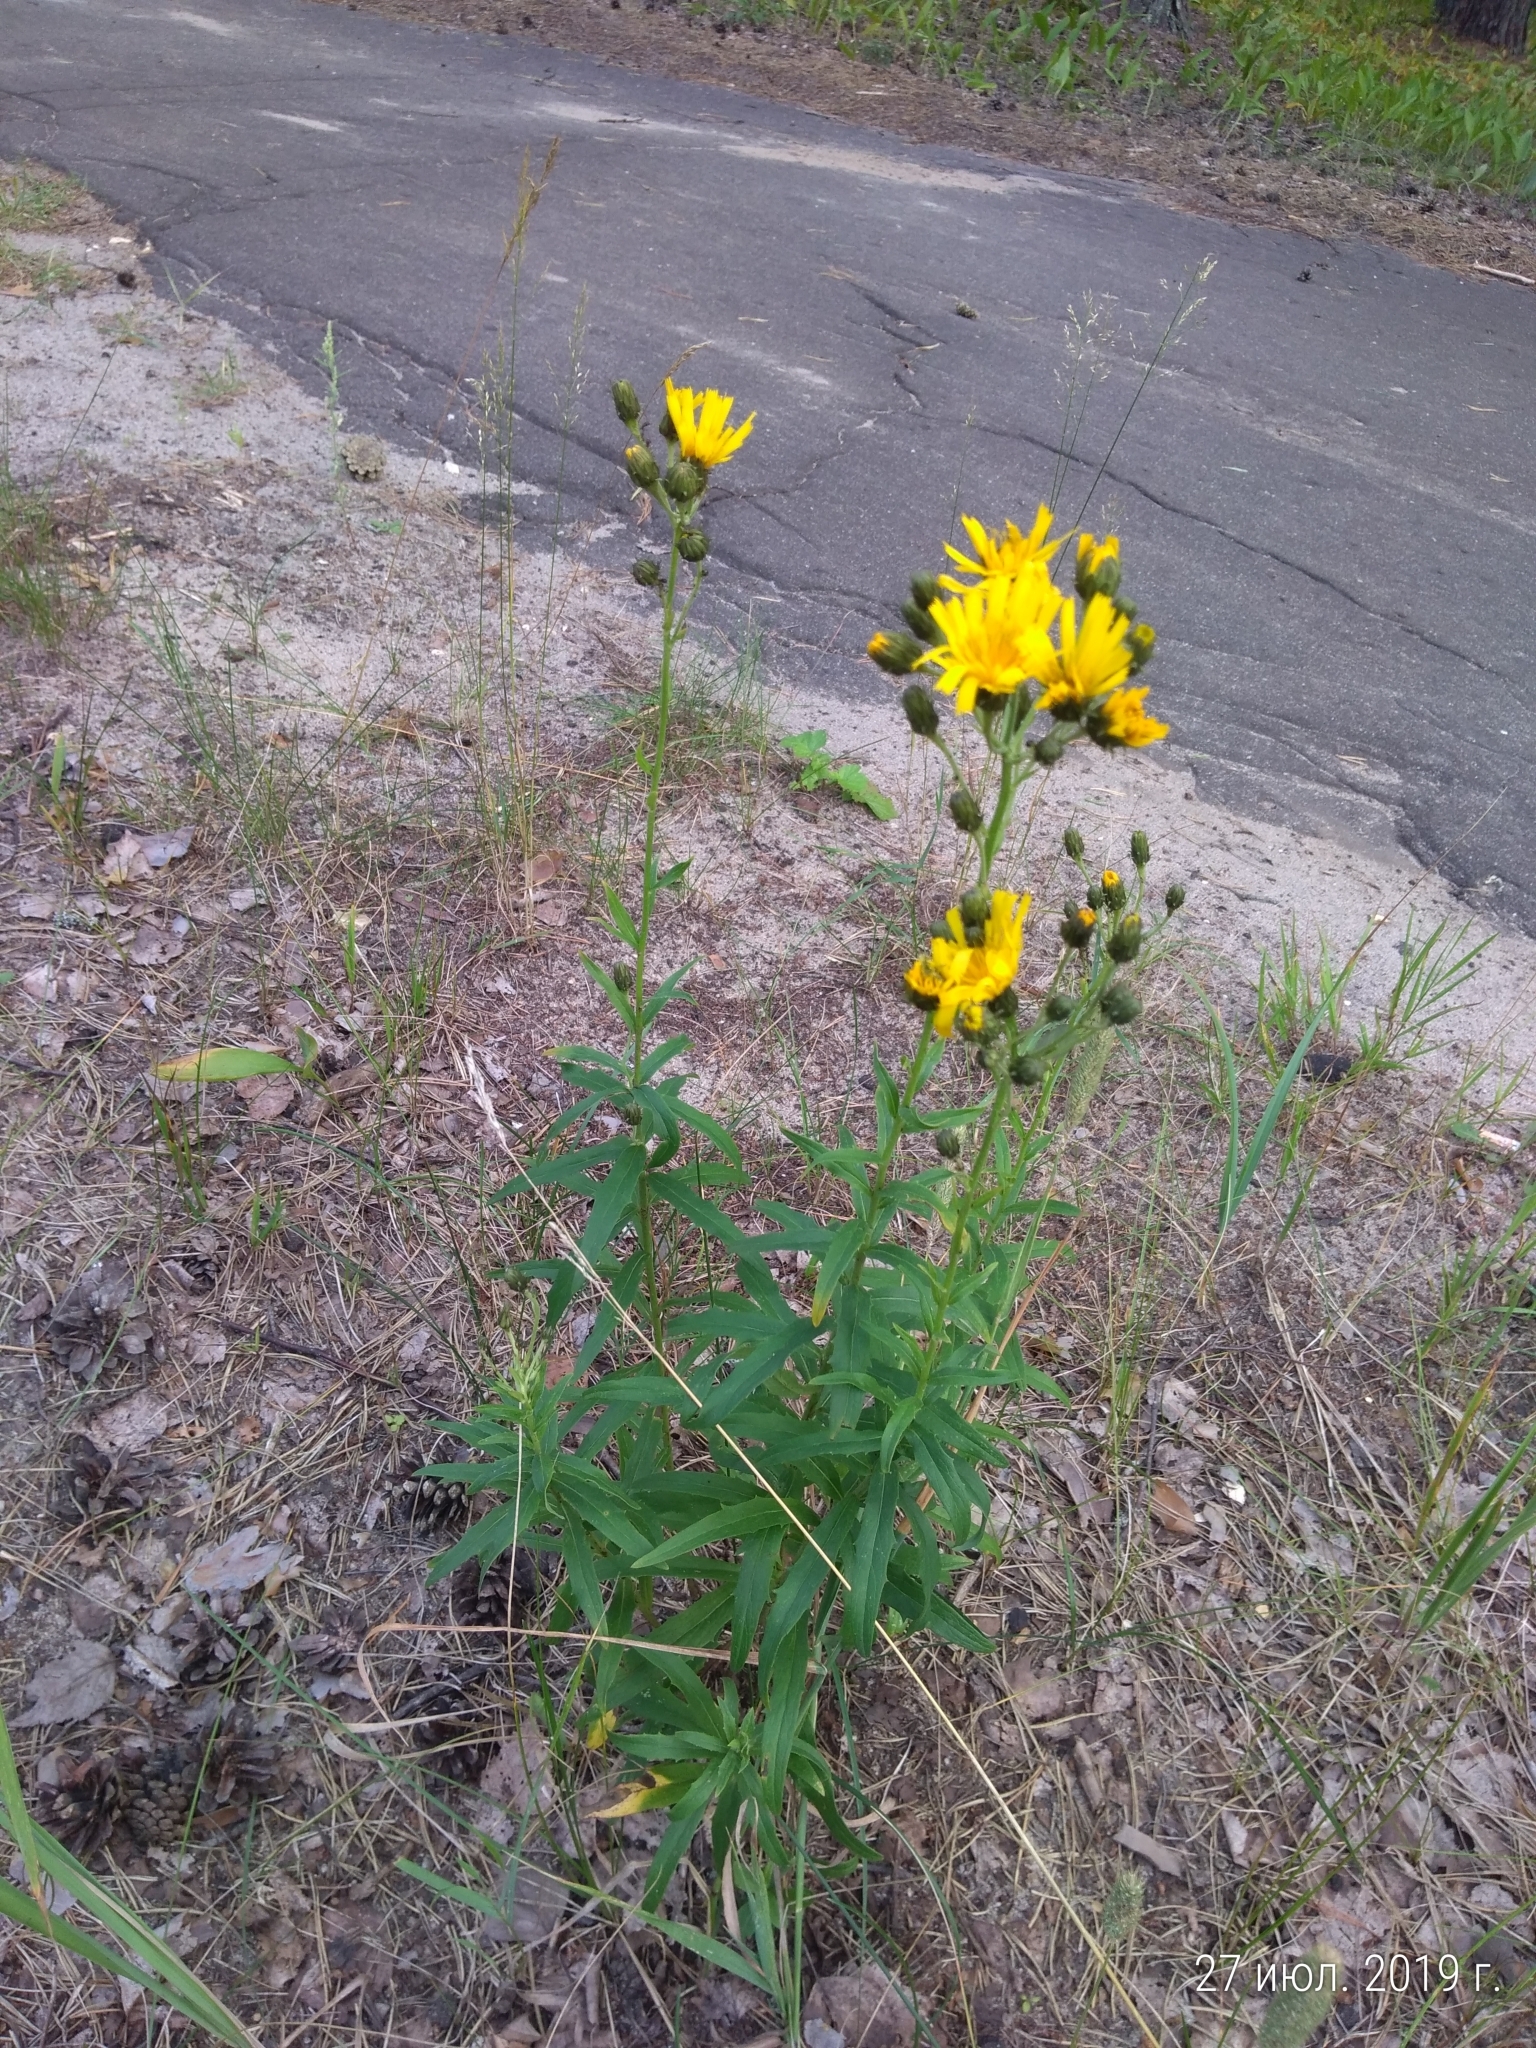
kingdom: Plantae
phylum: Tracheophyta
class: Magnoliopsida
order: Asterales
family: Asteraceae
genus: Hieracium
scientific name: Hieracium umbellatum
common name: Northern hawkweed
